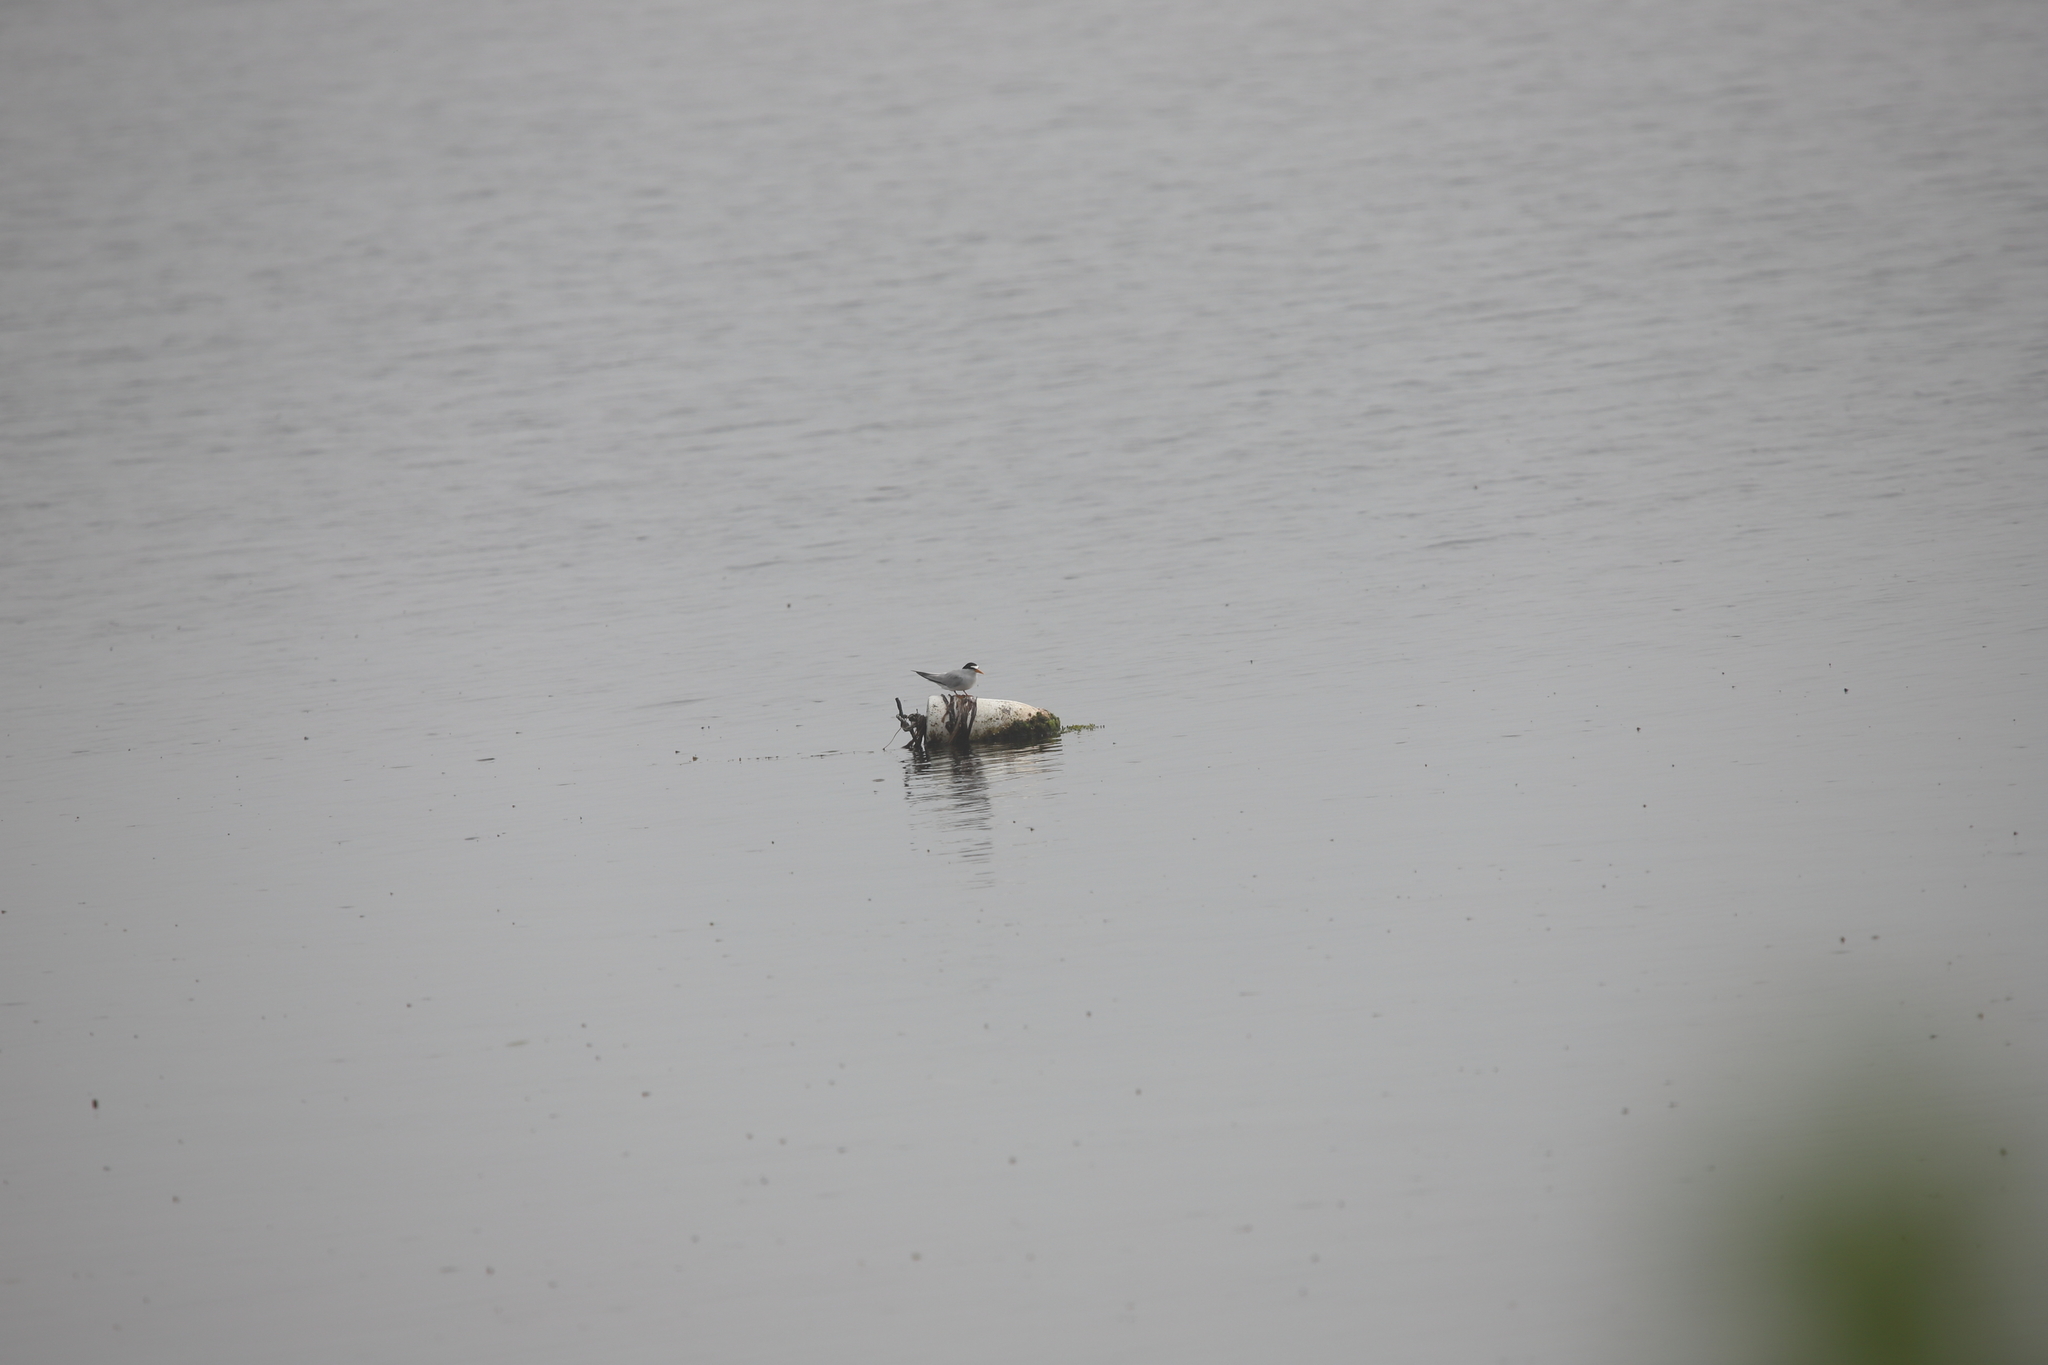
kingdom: Animalia
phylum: Chordata
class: Aves
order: Charadriiformes
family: Laridae
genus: Sternula
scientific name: Sternula antillarum
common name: Least tern
